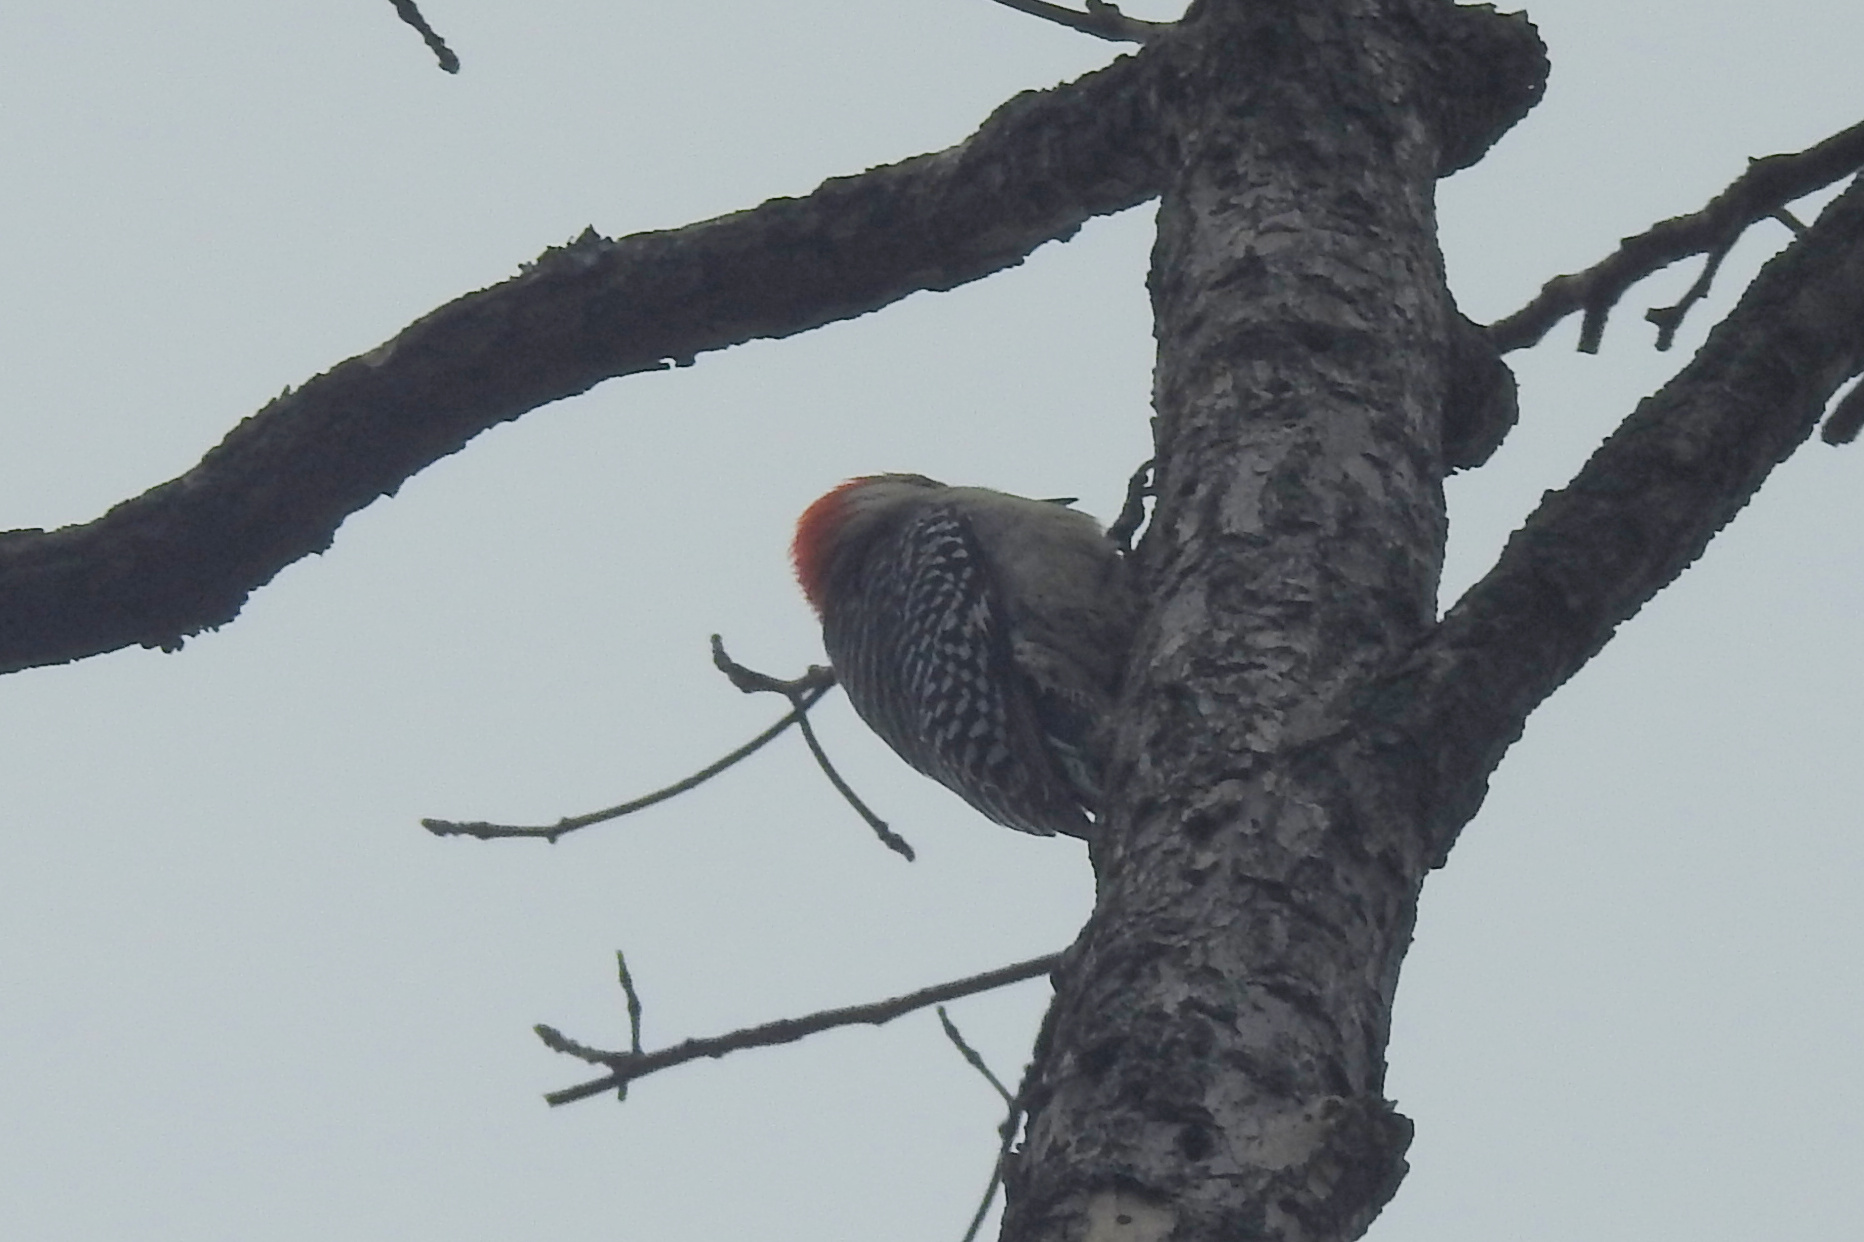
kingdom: Animalia
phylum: Chordata
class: Aves
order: Piciformes
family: Picidae
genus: Melanerpes
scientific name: Melanerpes carolinus
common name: Red-bellied woodpecker
